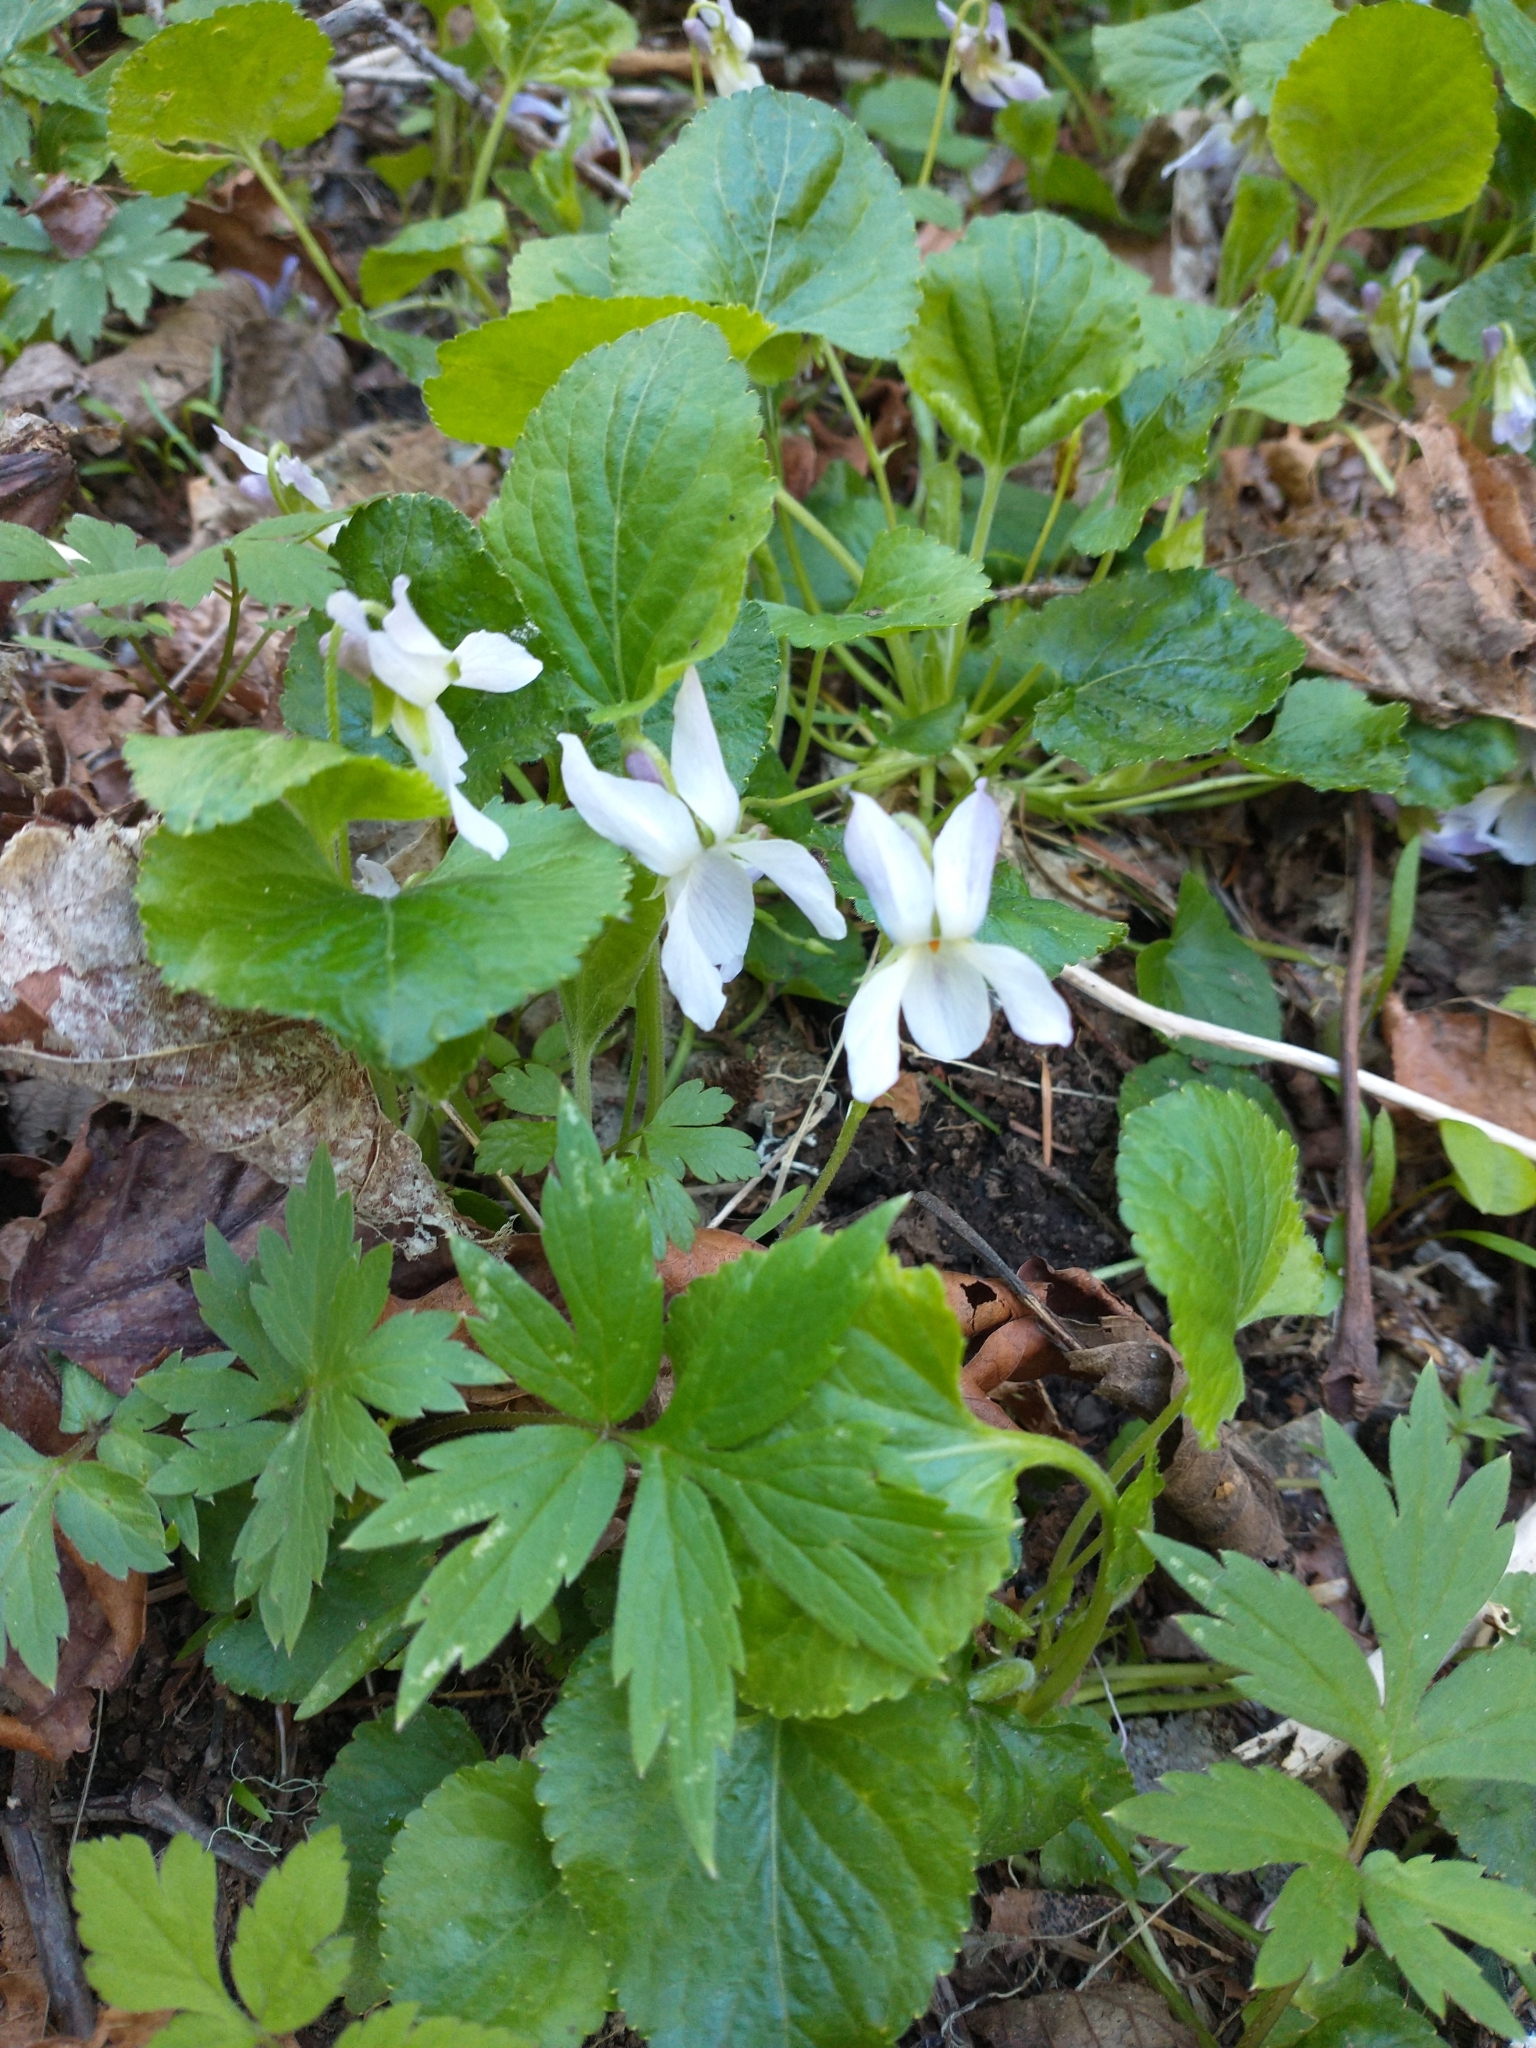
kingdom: Plantae
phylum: Tracheophyta
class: Magnoliopsida
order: Malpighiales
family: Violaceae
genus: Viola
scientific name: Viola odorata
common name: Sweet violet
